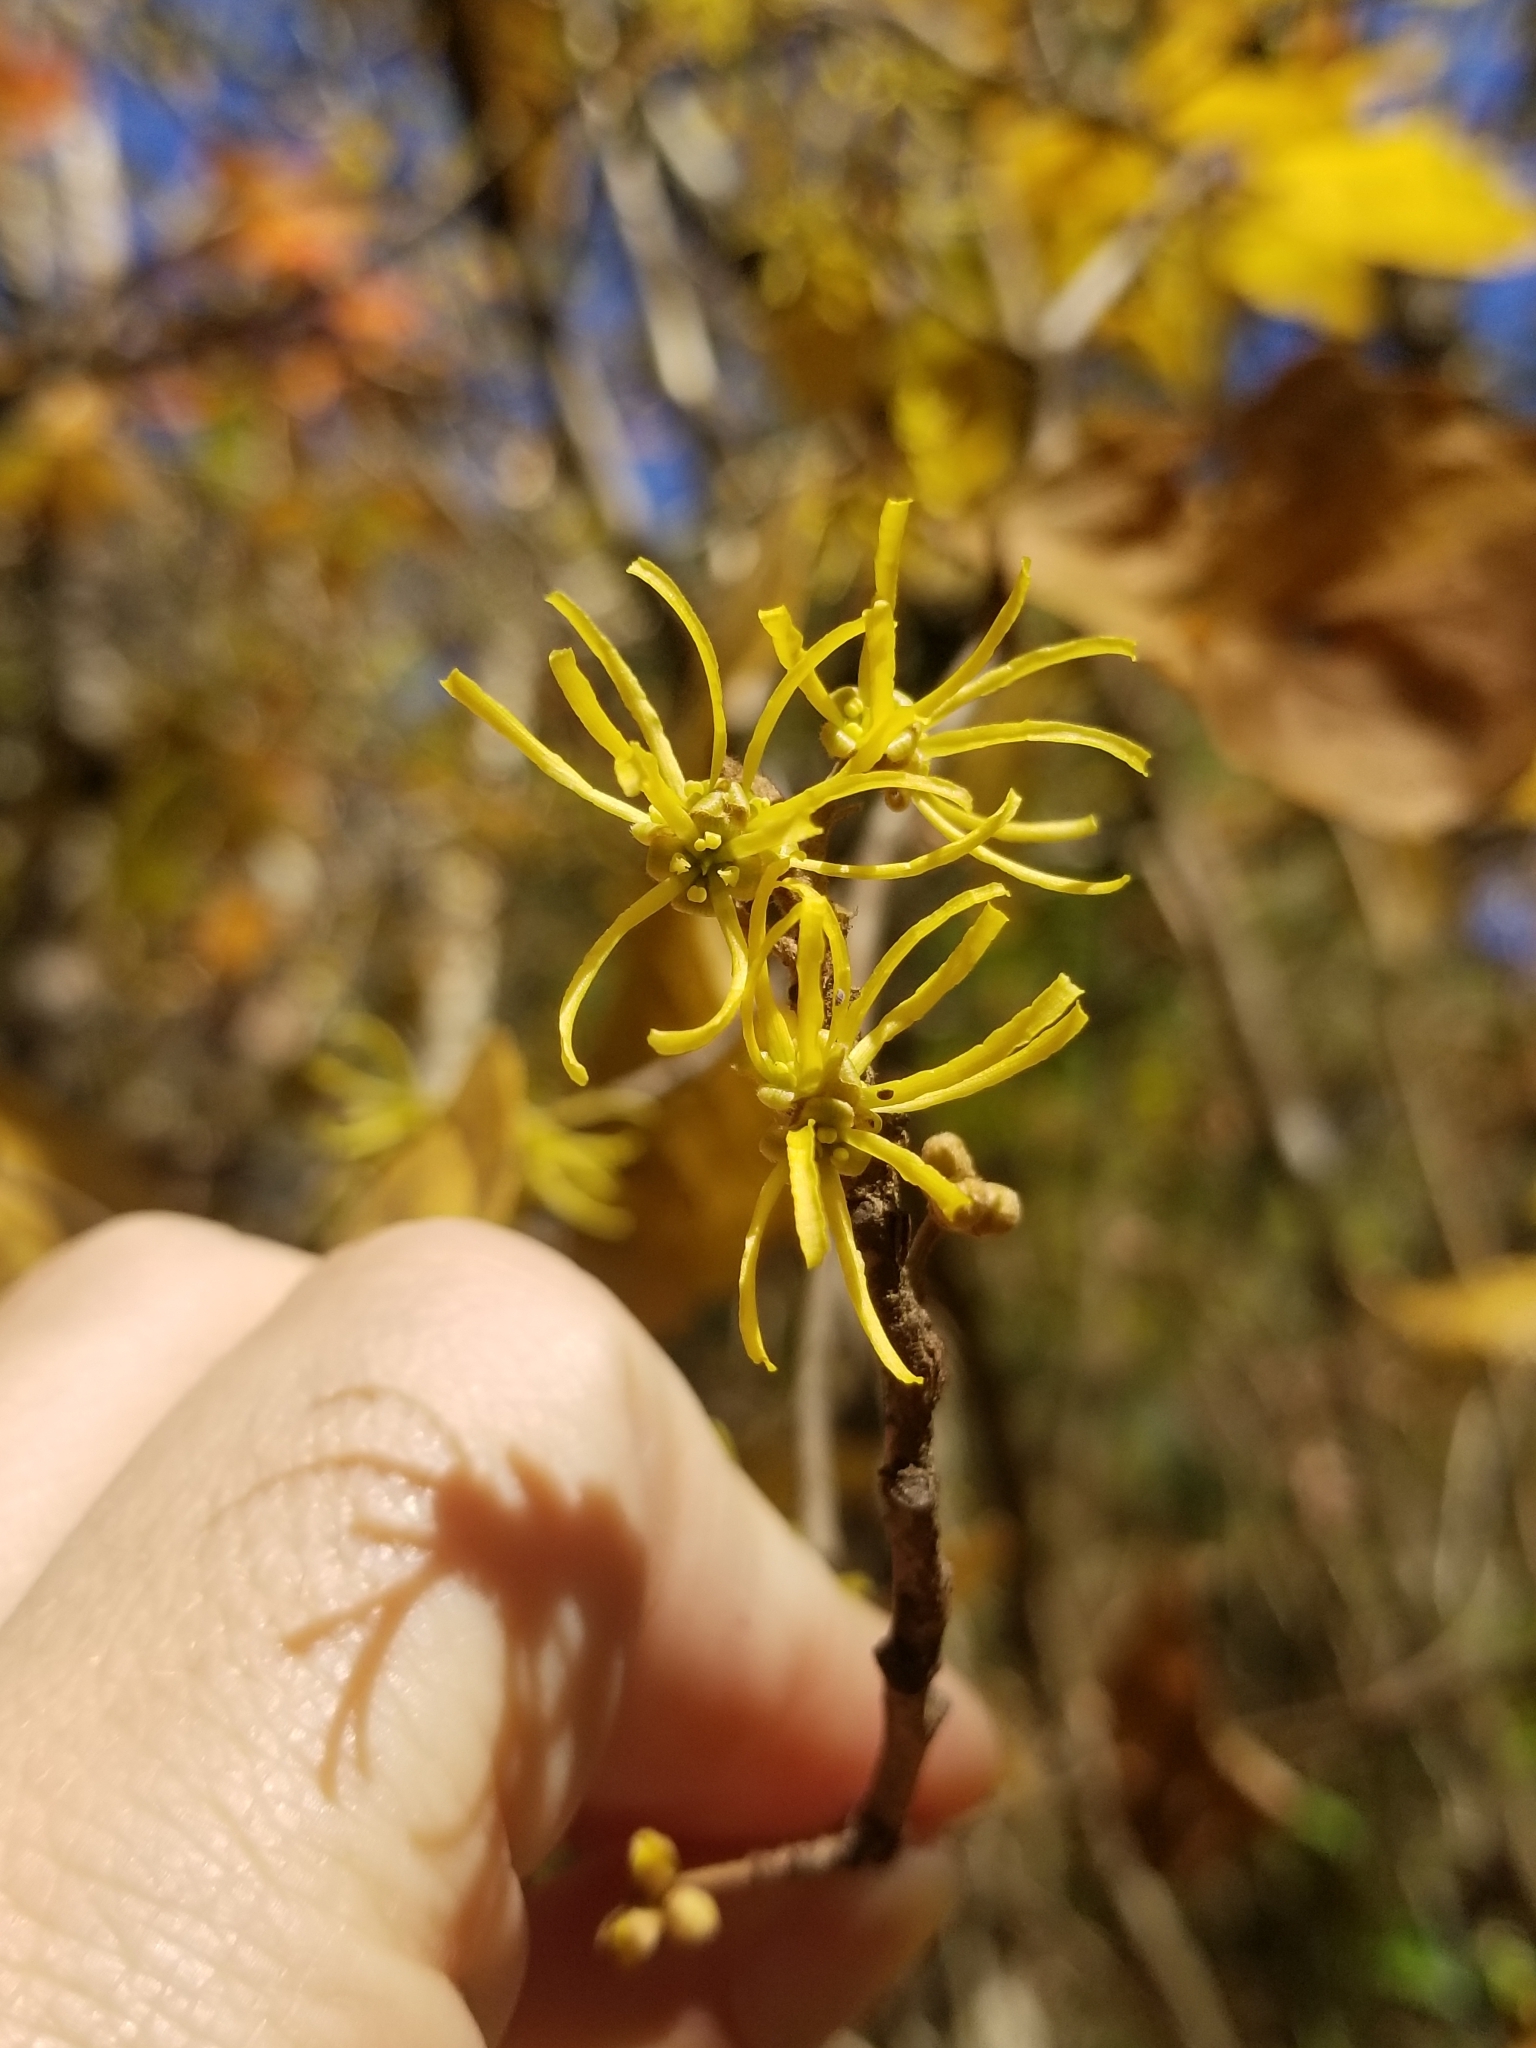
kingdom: Plantae
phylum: Tracheophyta
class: Magnoliopsida
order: Saxifragales
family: Hamamelidaceae
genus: Hamamelis
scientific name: Hamamelis virginiana
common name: Witch-hazel
